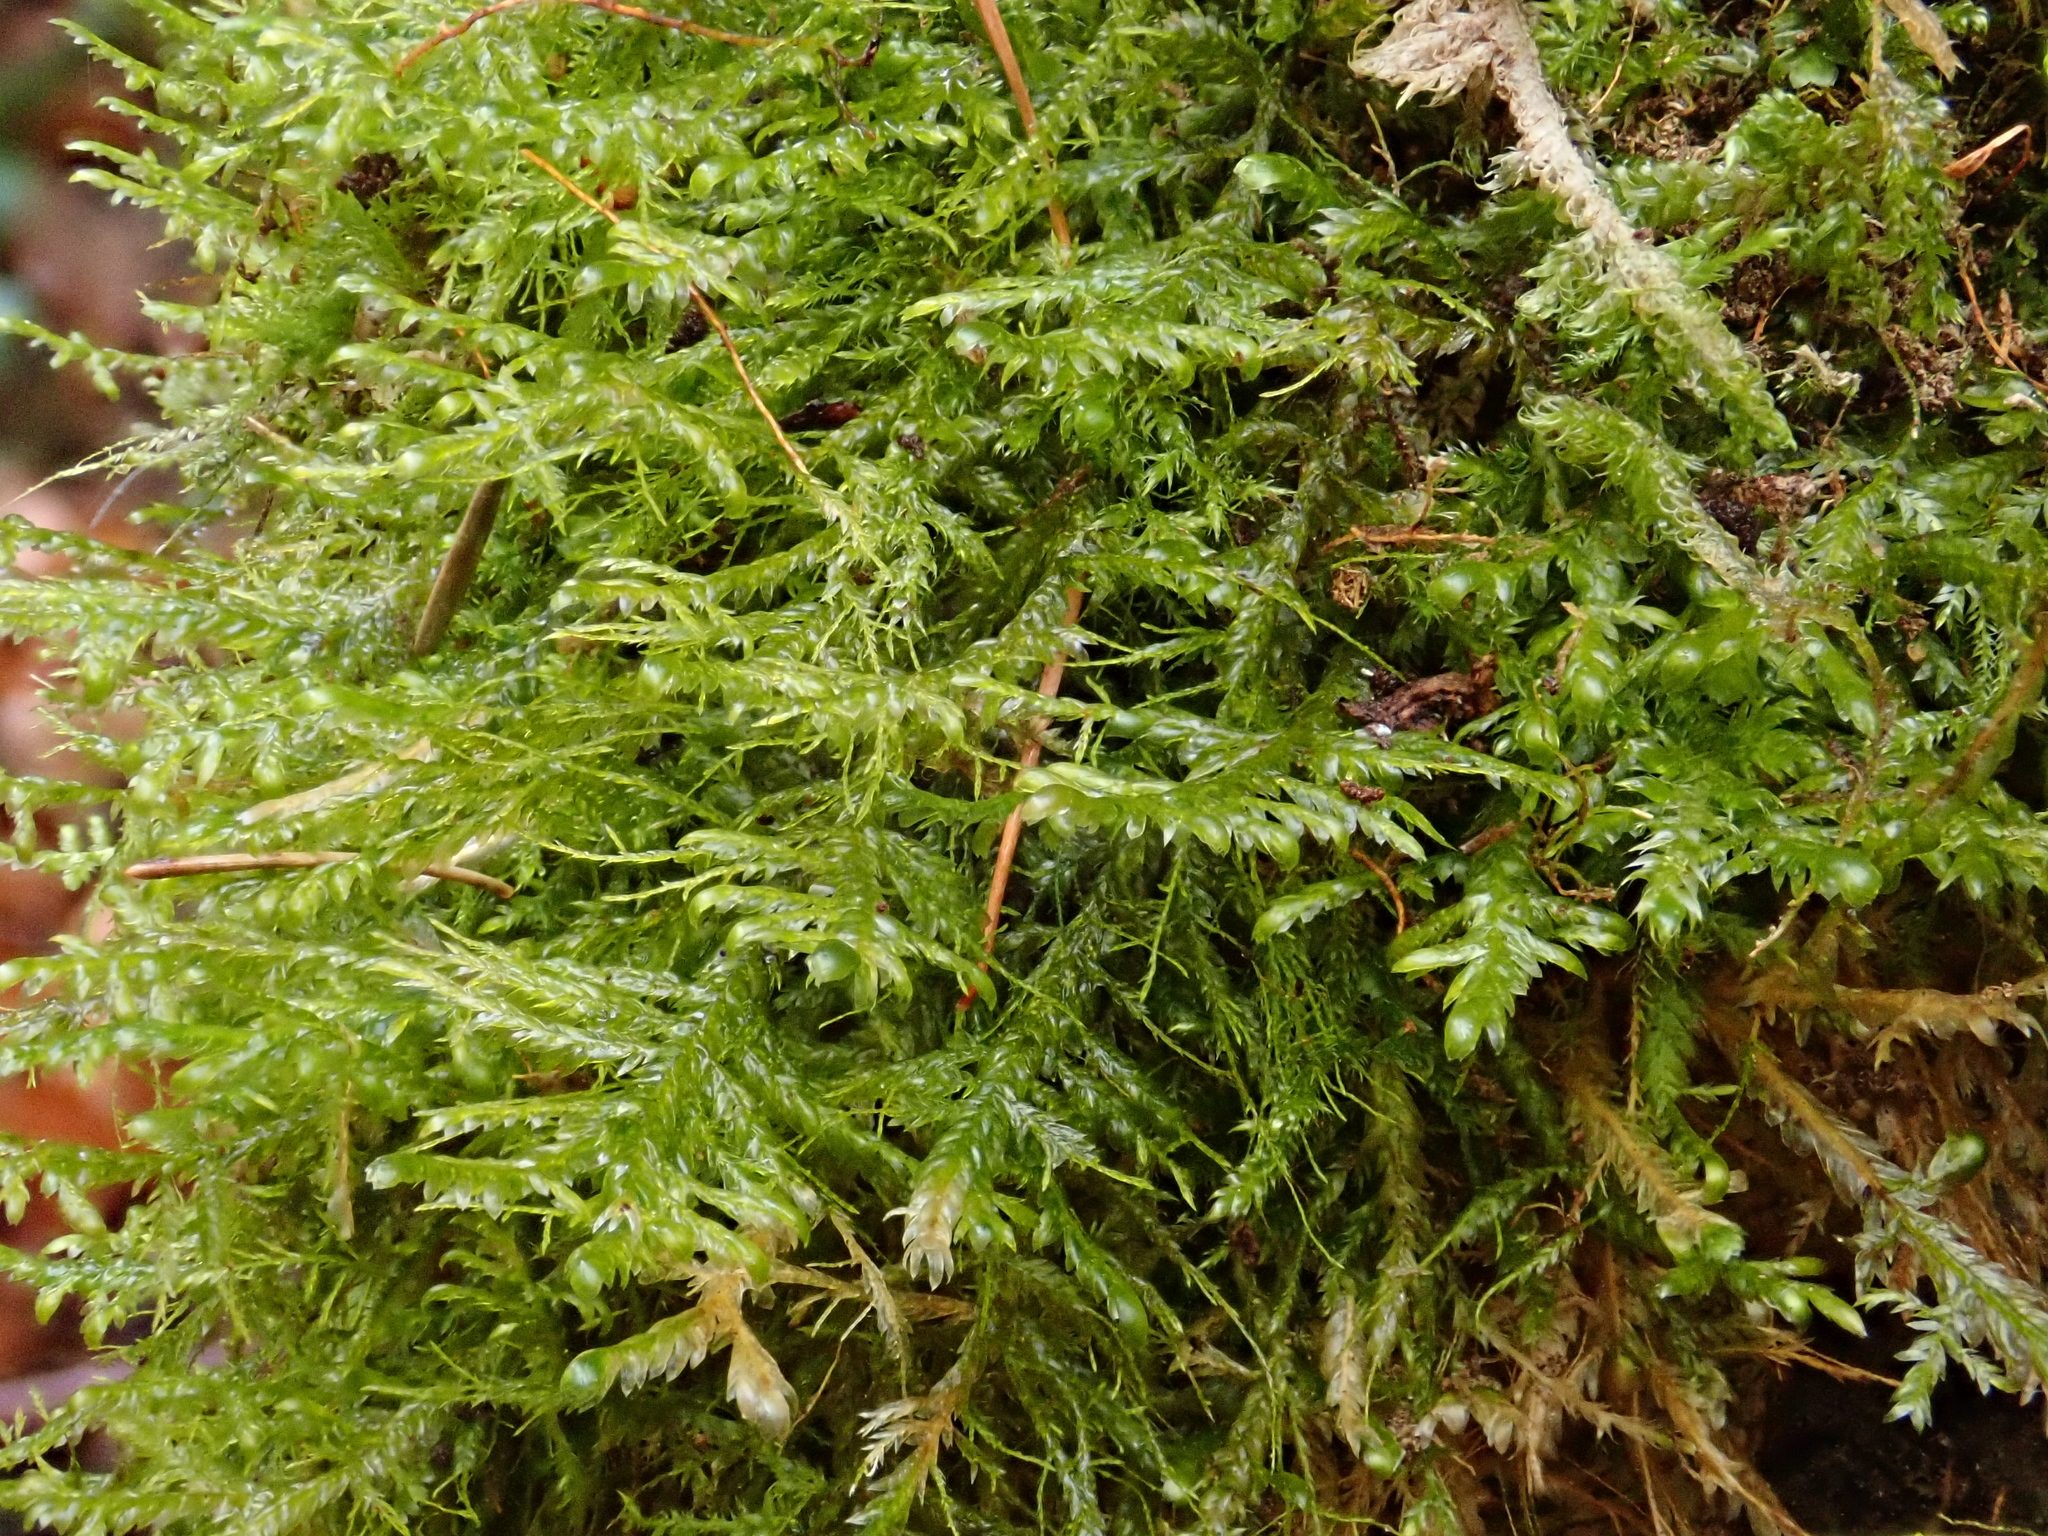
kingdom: Plantae
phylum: Bryophyta
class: Bryopsida
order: Hypnales
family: Neckeraceae
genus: Alleniella
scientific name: Alleniella complanata
